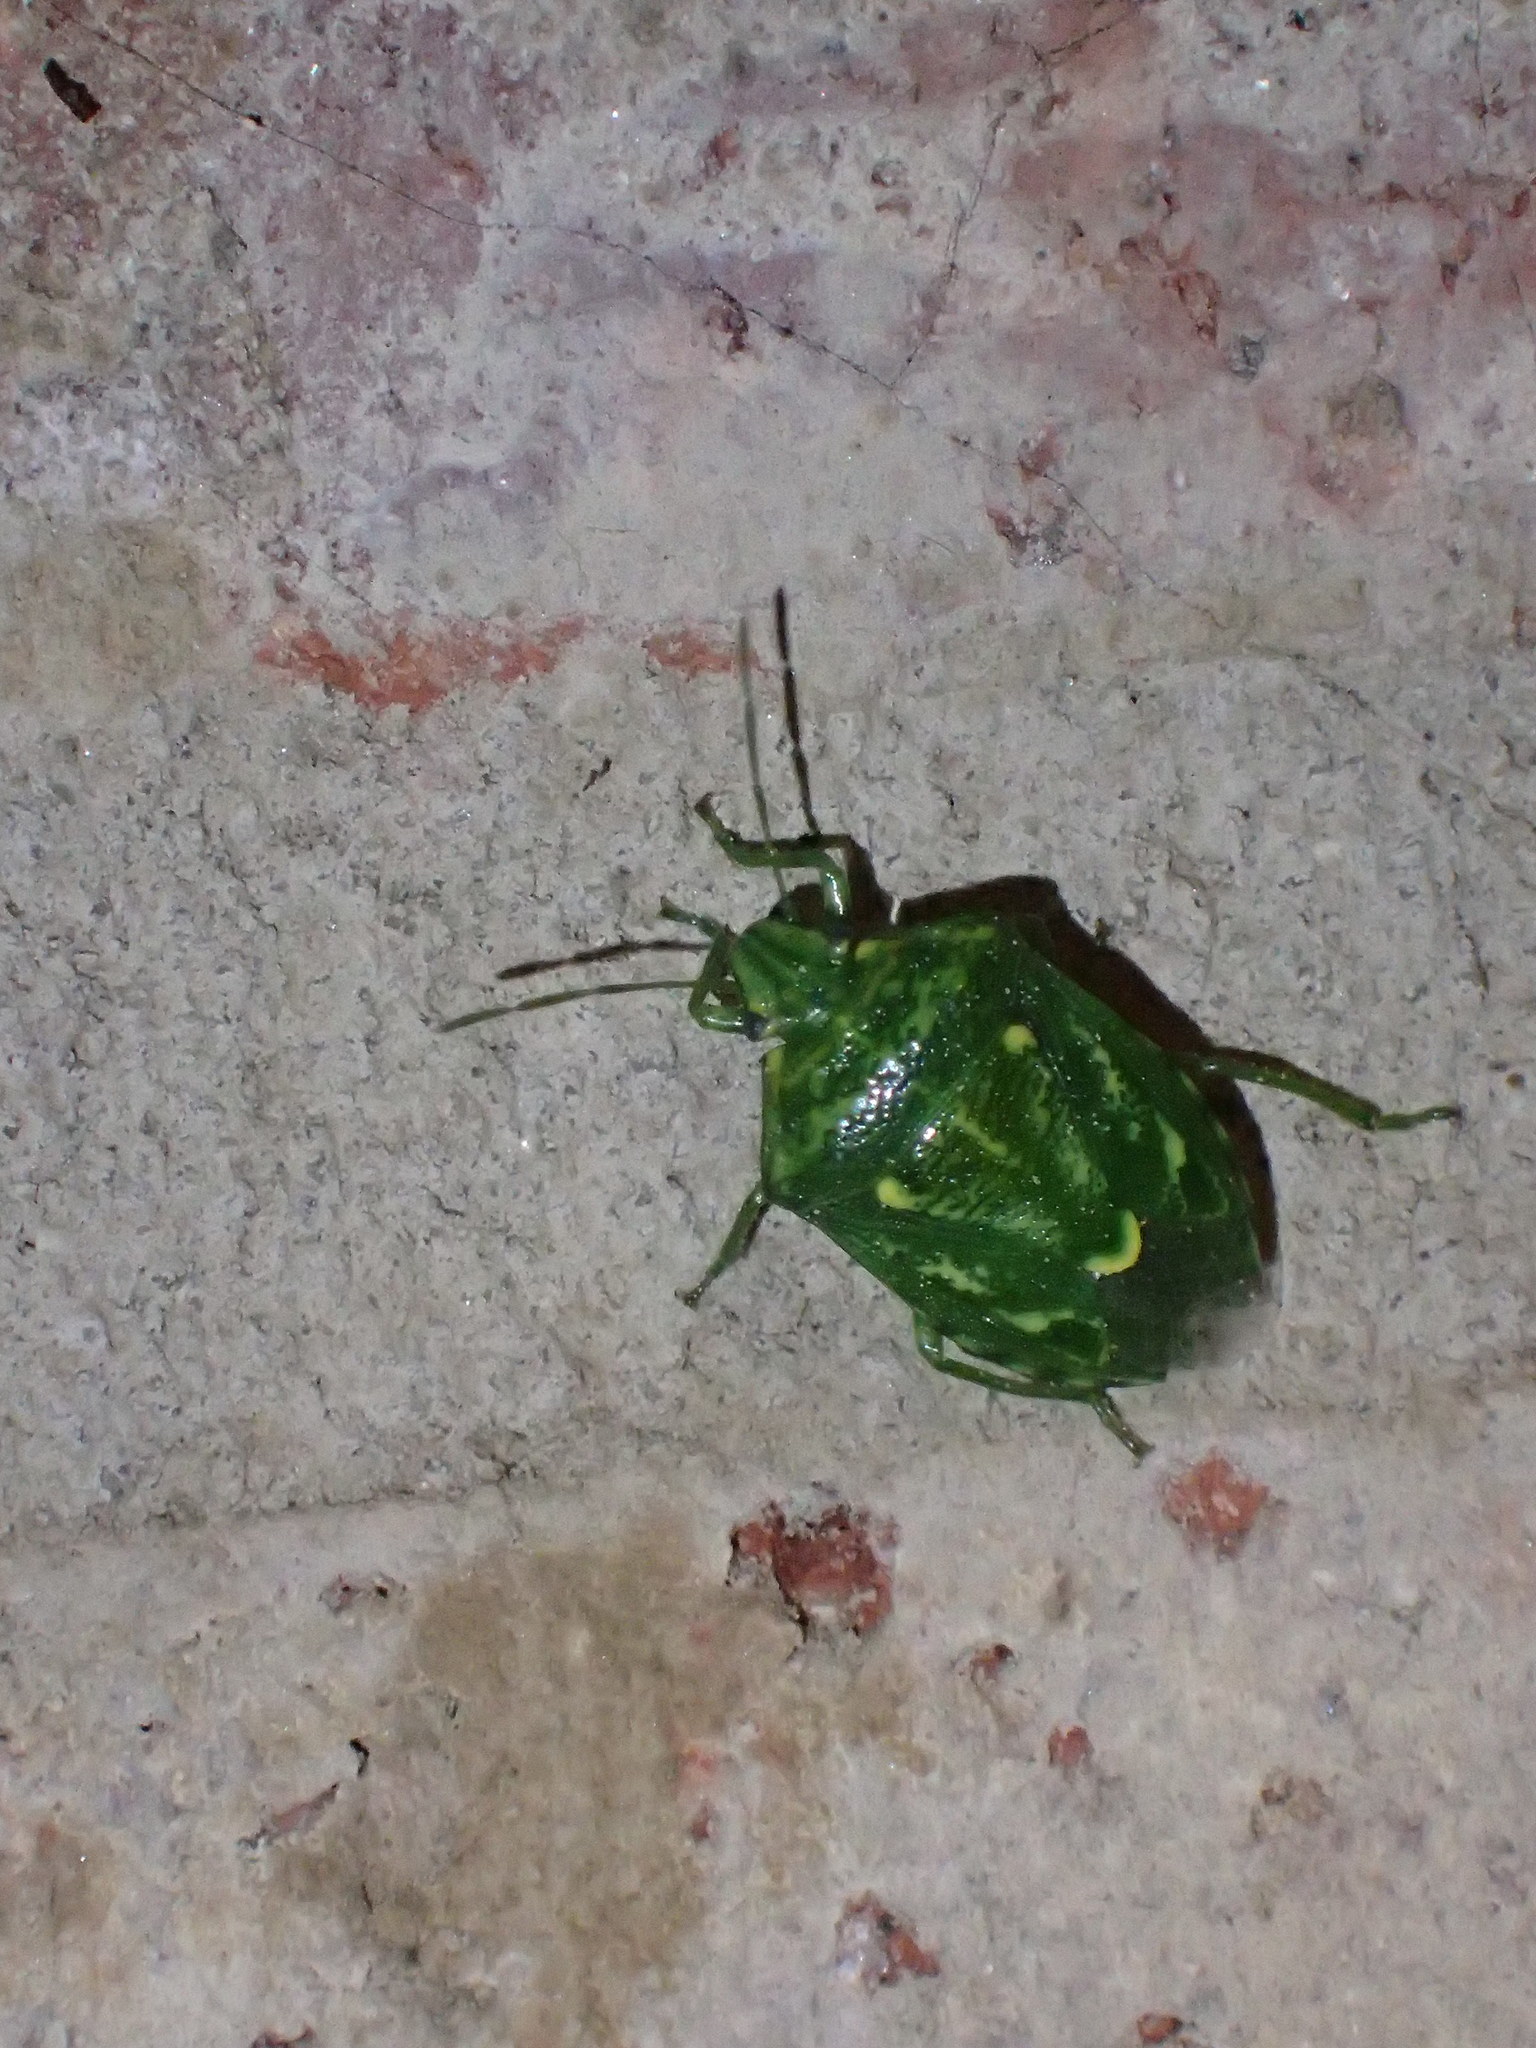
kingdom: Animalia
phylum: Arthropoda
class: Insecta
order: Hemiptera
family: Pentatomidae
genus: Banasa
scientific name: Banasa euchlora
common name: Cedar berry bug
